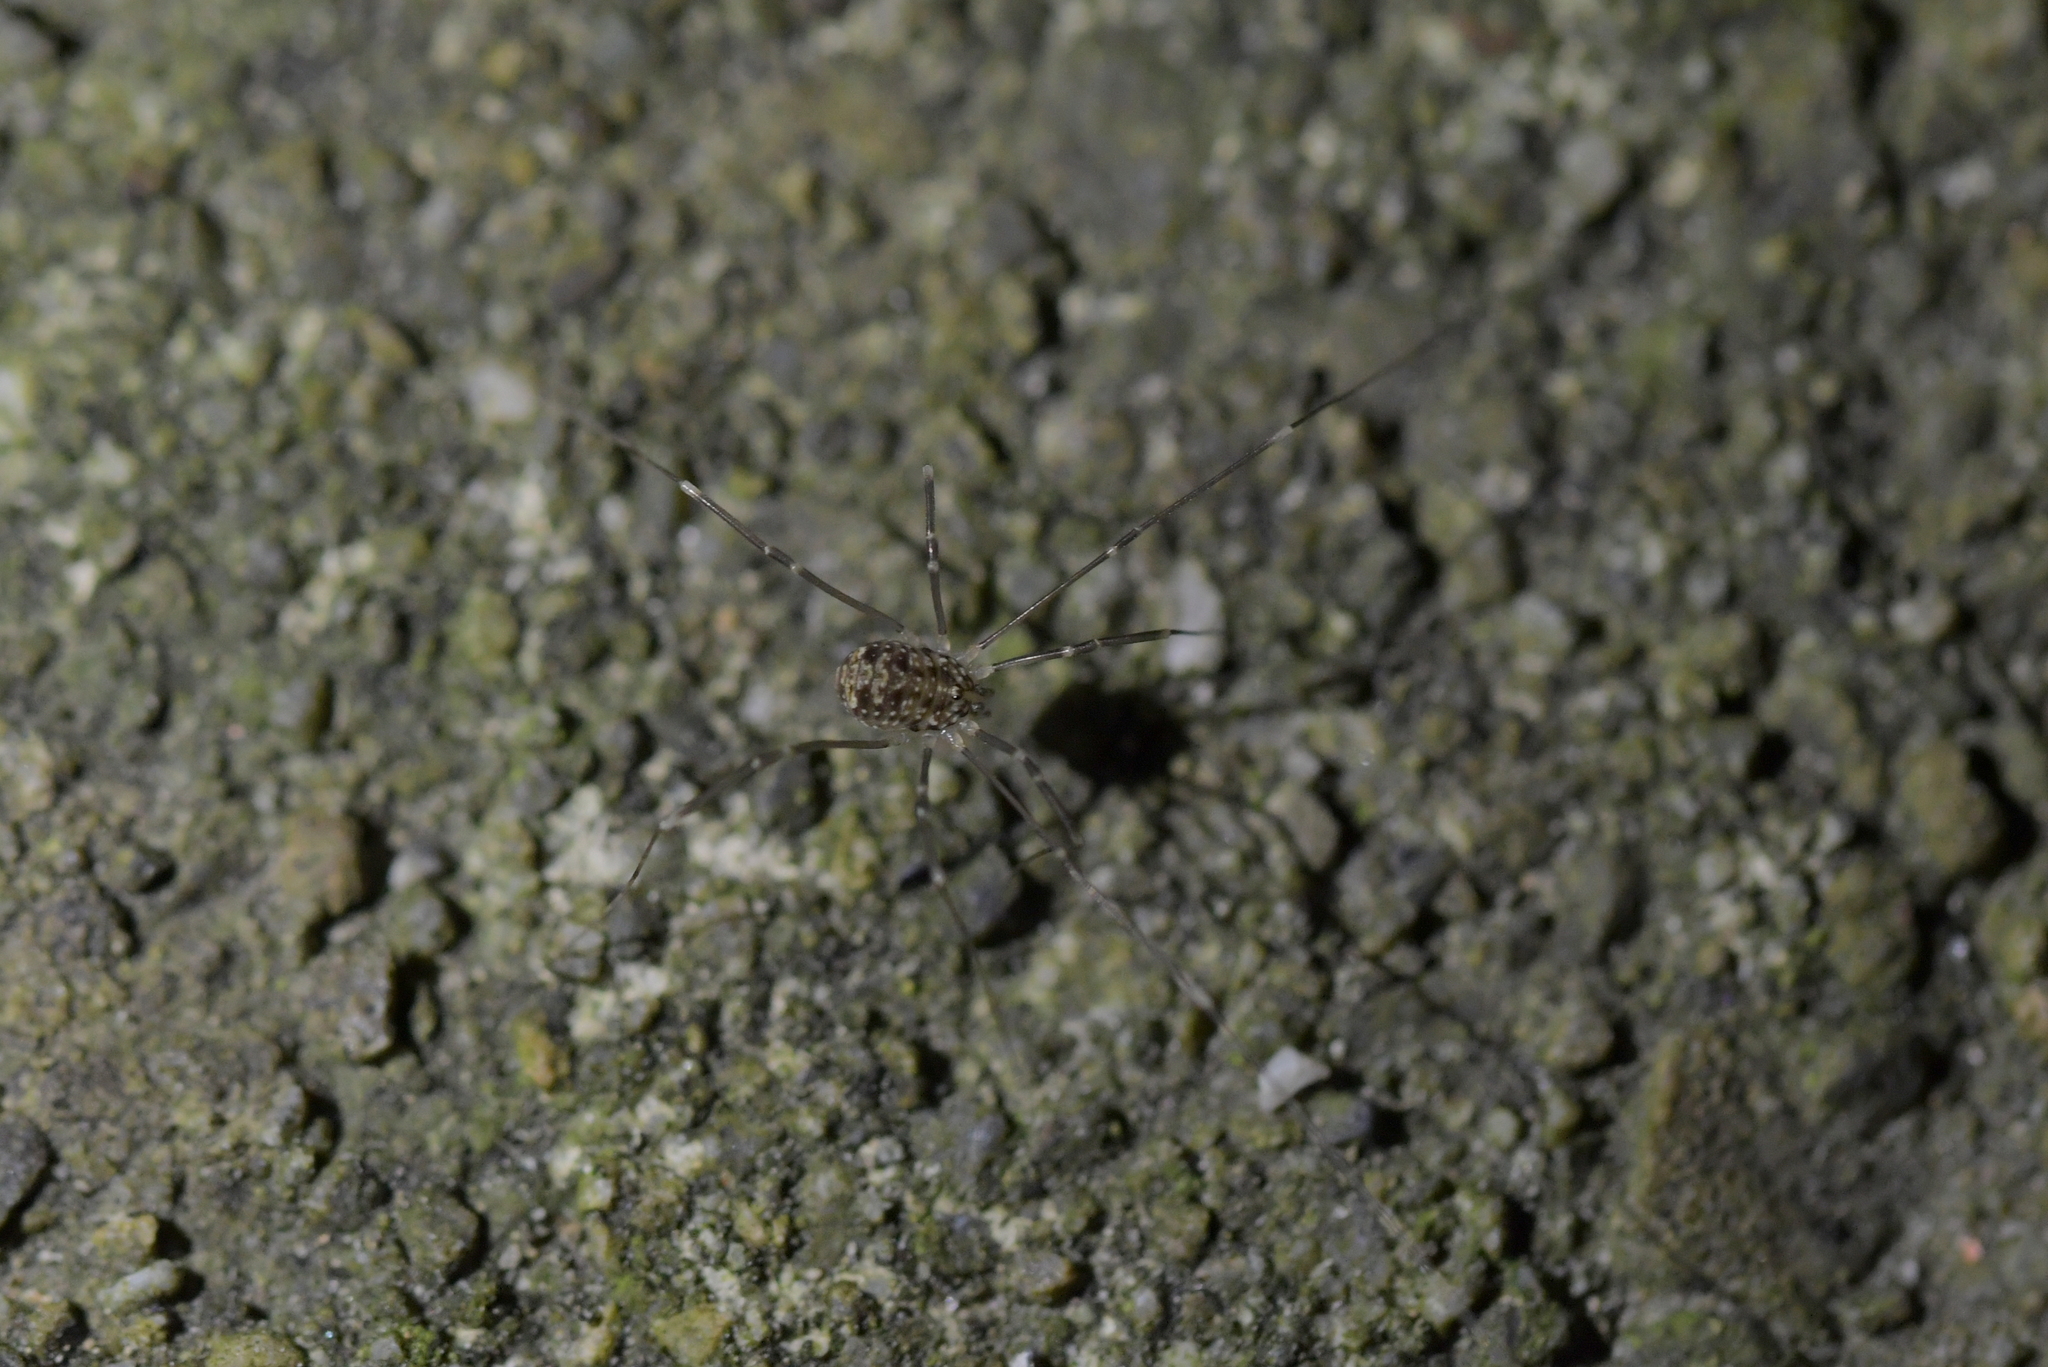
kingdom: Animalia
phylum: Arthropoda
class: Arachnida
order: Opiliones
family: Sclerosomatidae
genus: Nelima
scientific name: Nelima doriae
